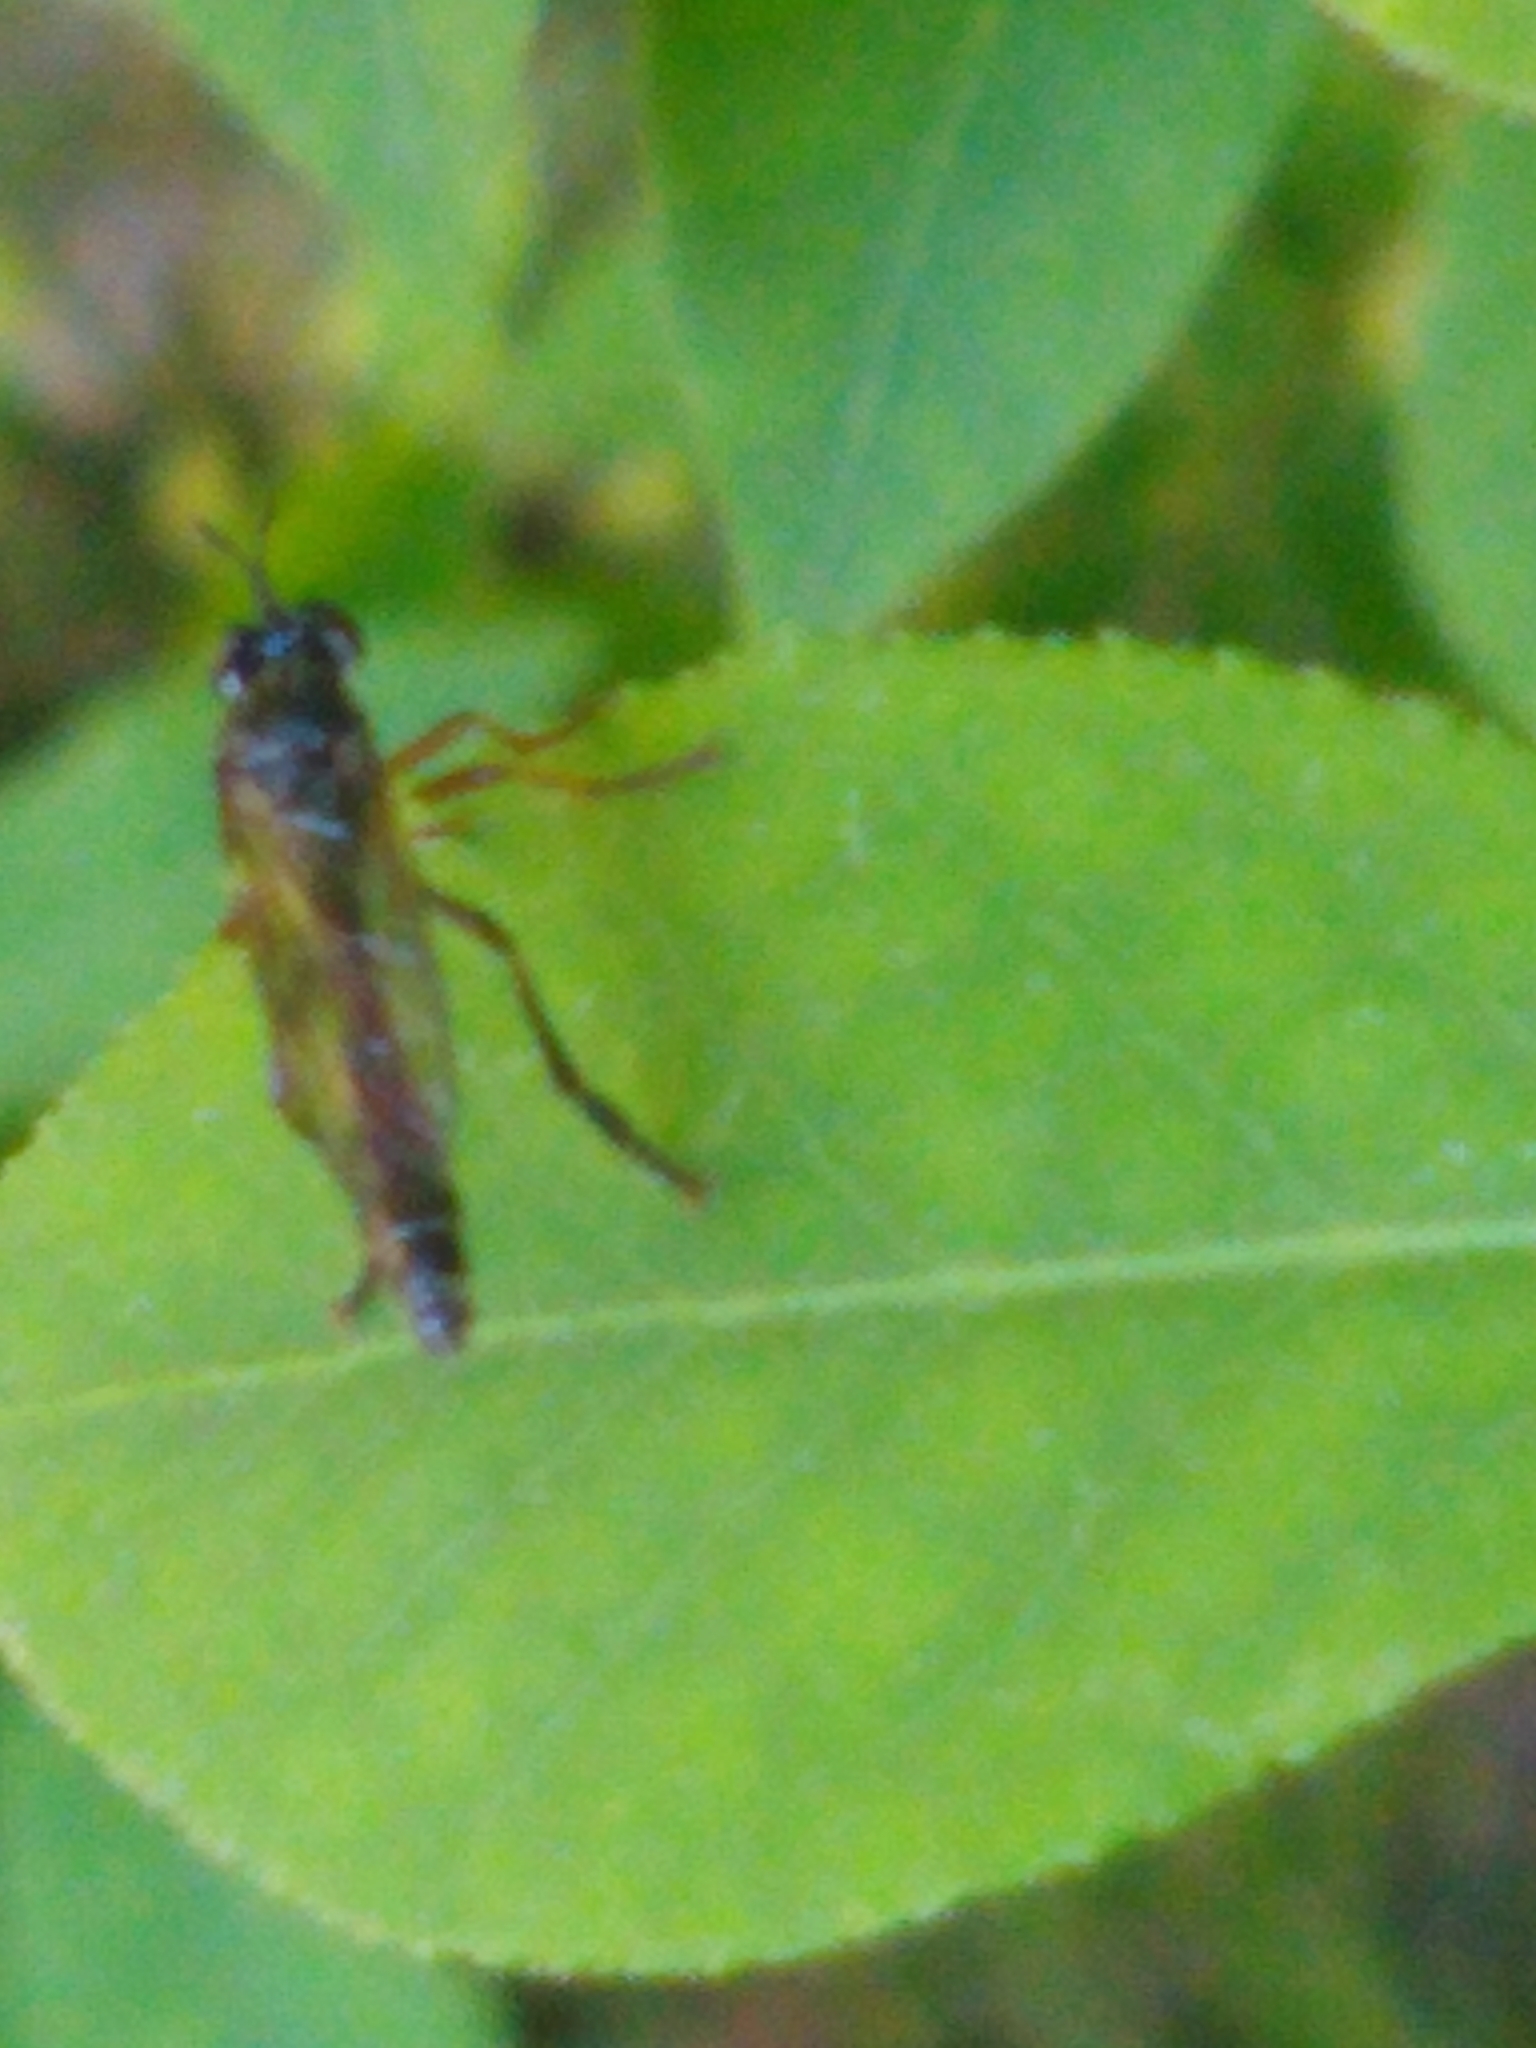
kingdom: Animalia
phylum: Arthropoda
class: Insecta
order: Diptera
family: Asilidae
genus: Dioctria
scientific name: Dioctria hyalipennis
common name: Stripe-legged robberfly
